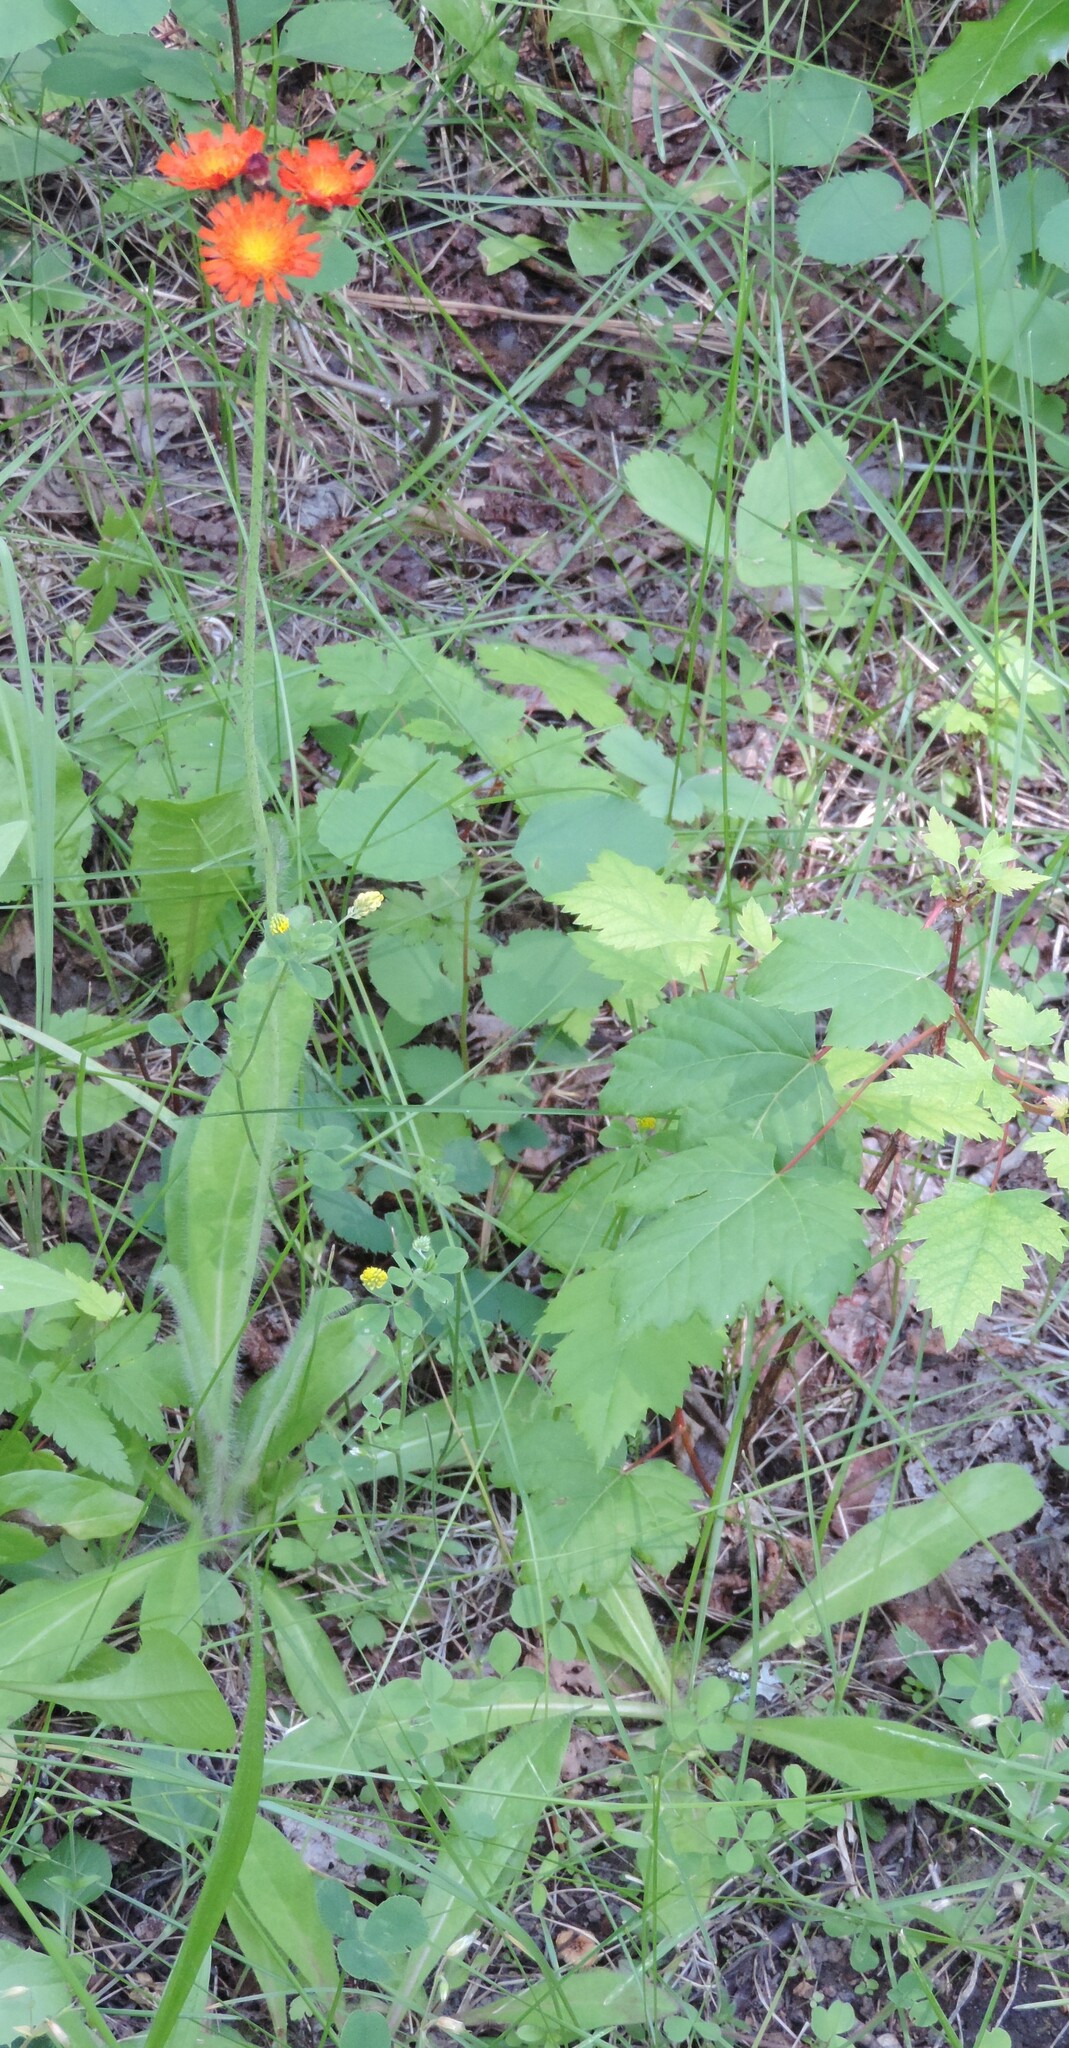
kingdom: Plantae
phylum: Tracheophyta
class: Magnoliopsida
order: Asterales
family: Asteraceae
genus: Pilosella
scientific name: Pilosella aurantiaca
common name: Fox-and-cubs
